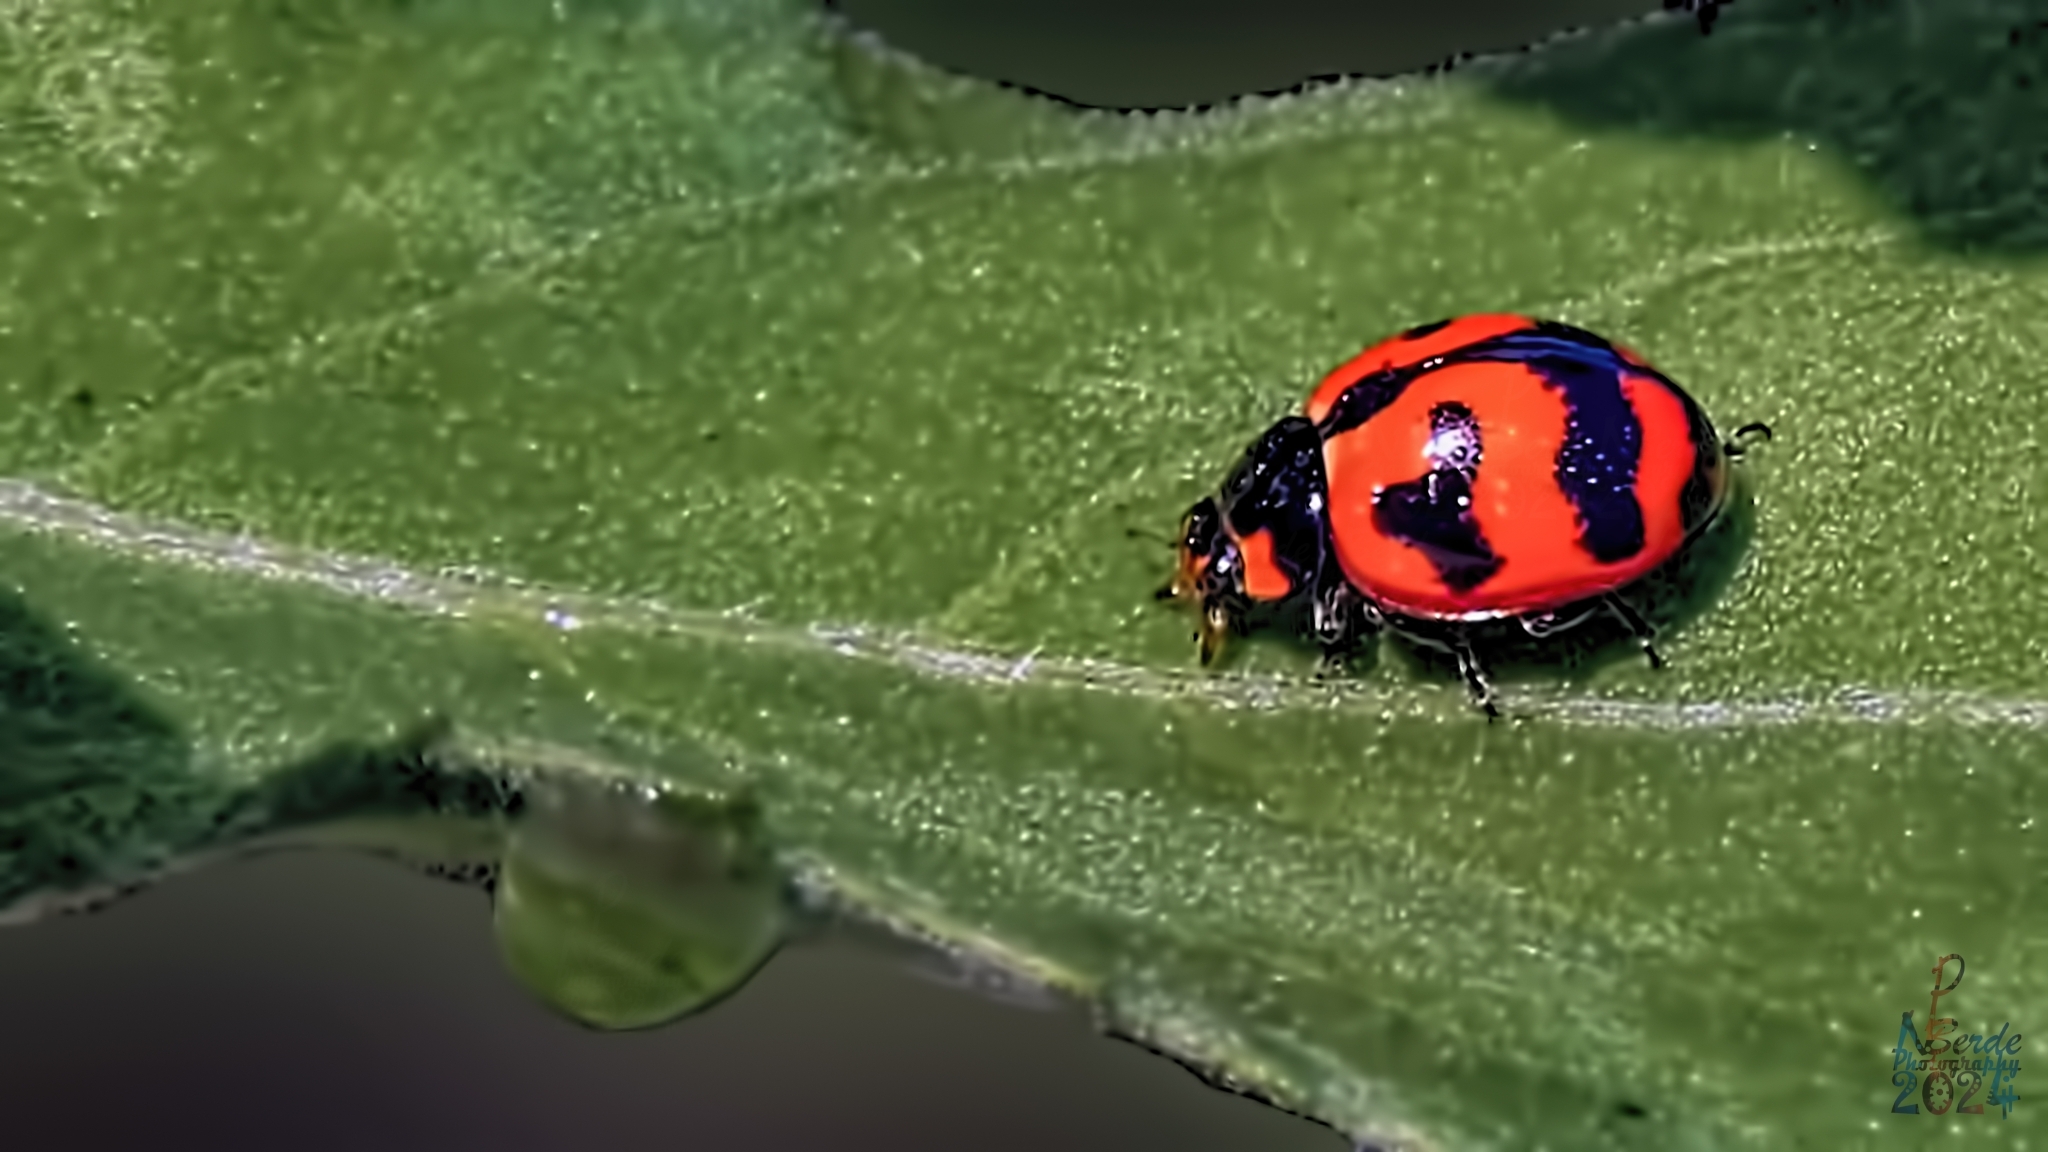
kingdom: Animalia
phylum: Arthropoda
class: Insecta
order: Coleoptera
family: Coccinellidae
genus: Cheilomenes
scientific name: Cheilomenes sexmaculata
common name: Ladybird beetle
